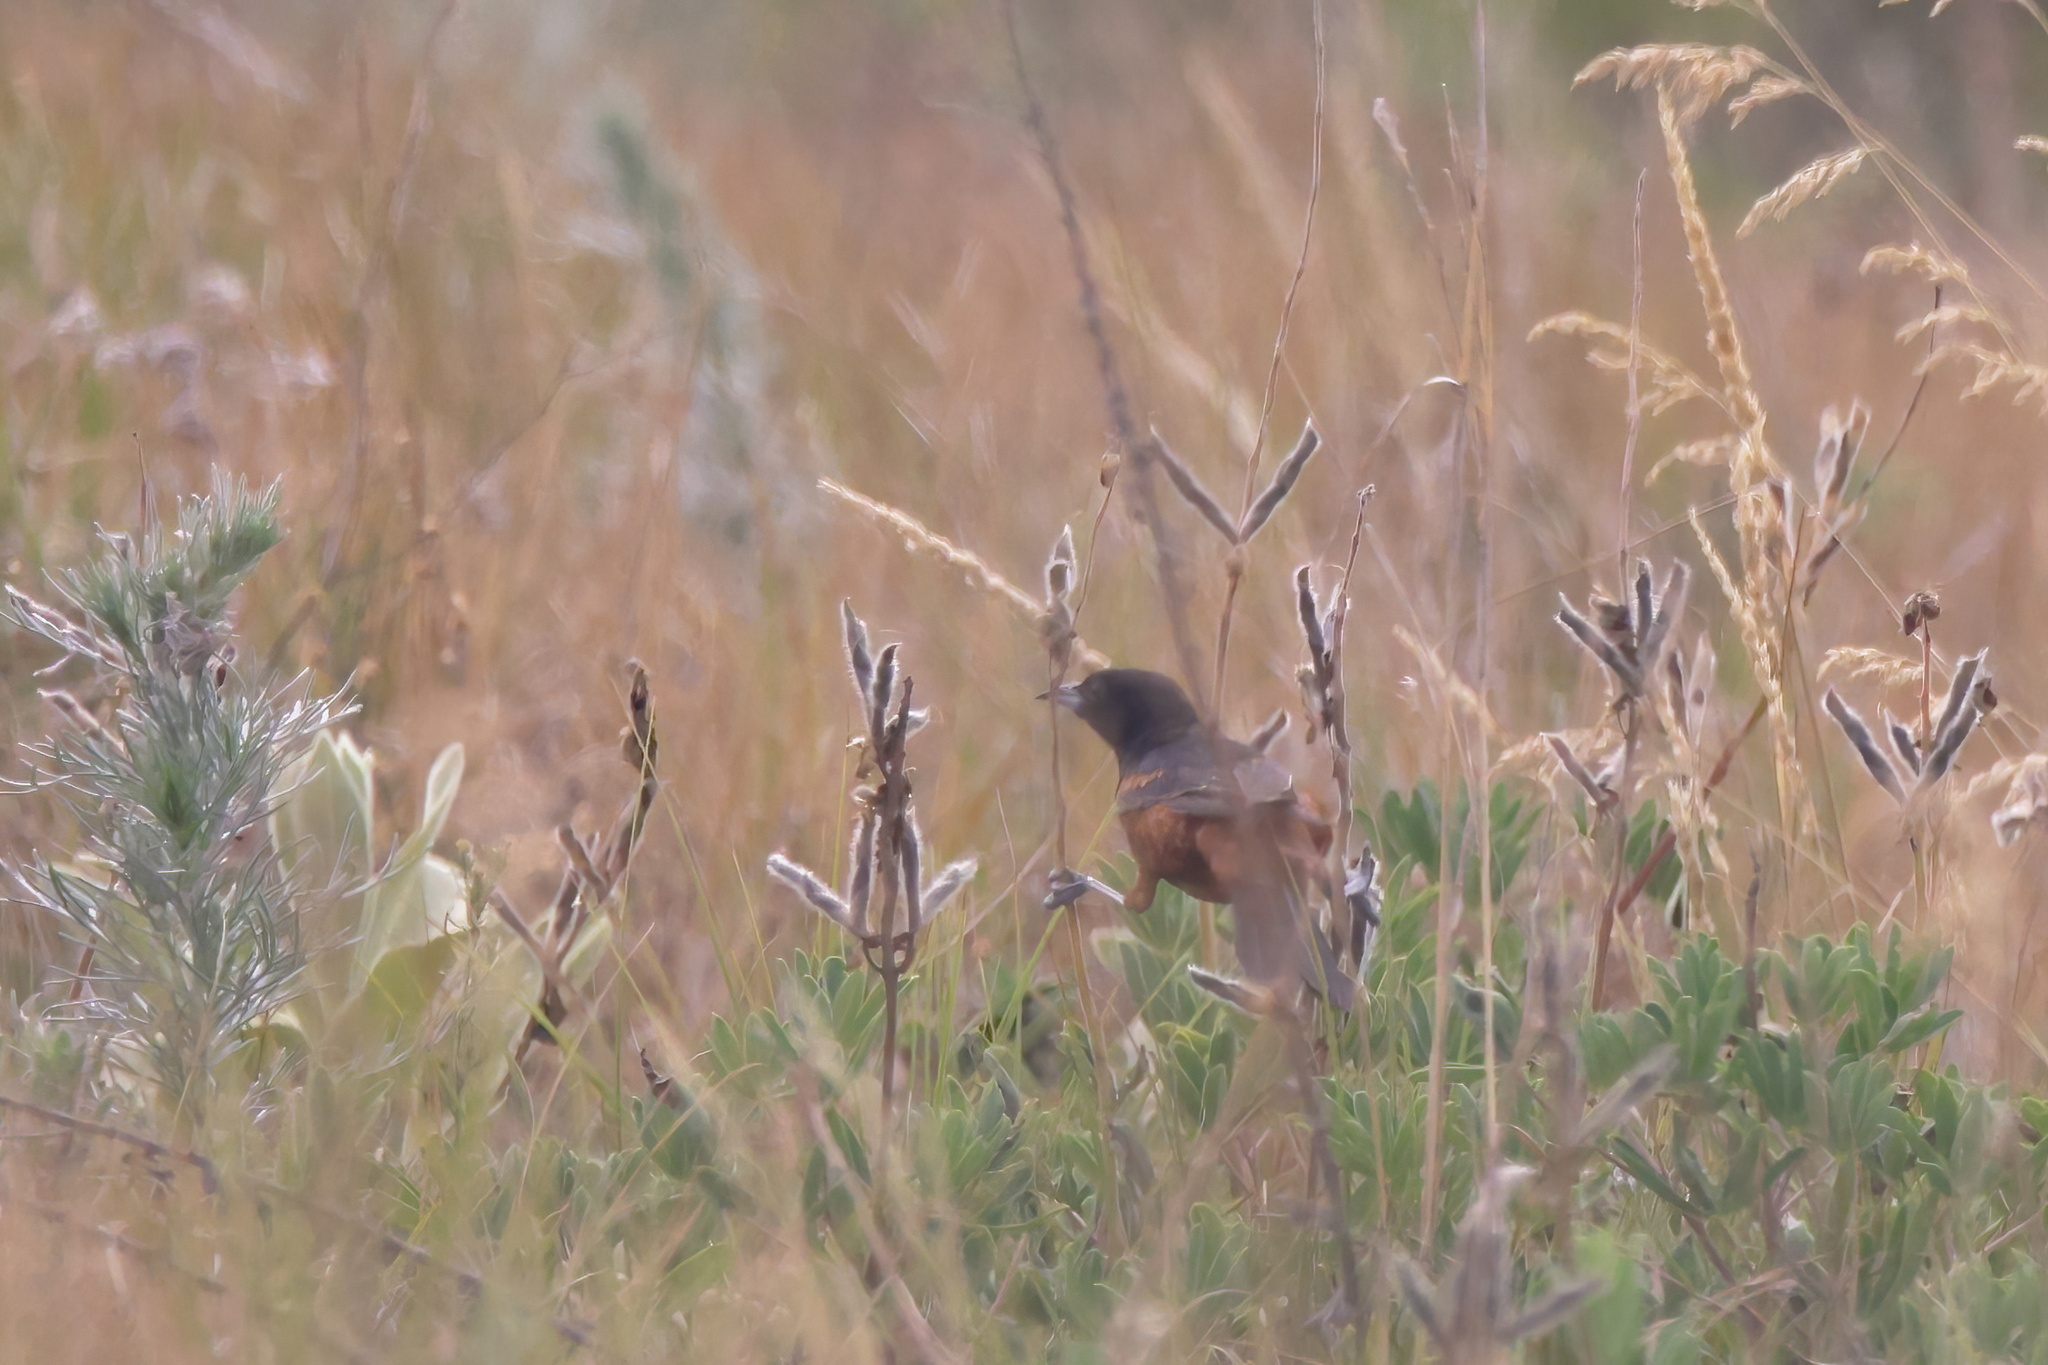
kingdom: Animalia
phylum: Chordata
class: Aves
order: Passeriformes
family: Icteridae
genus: Icterus
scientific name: Icterus spurius
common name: Orchard oriole
